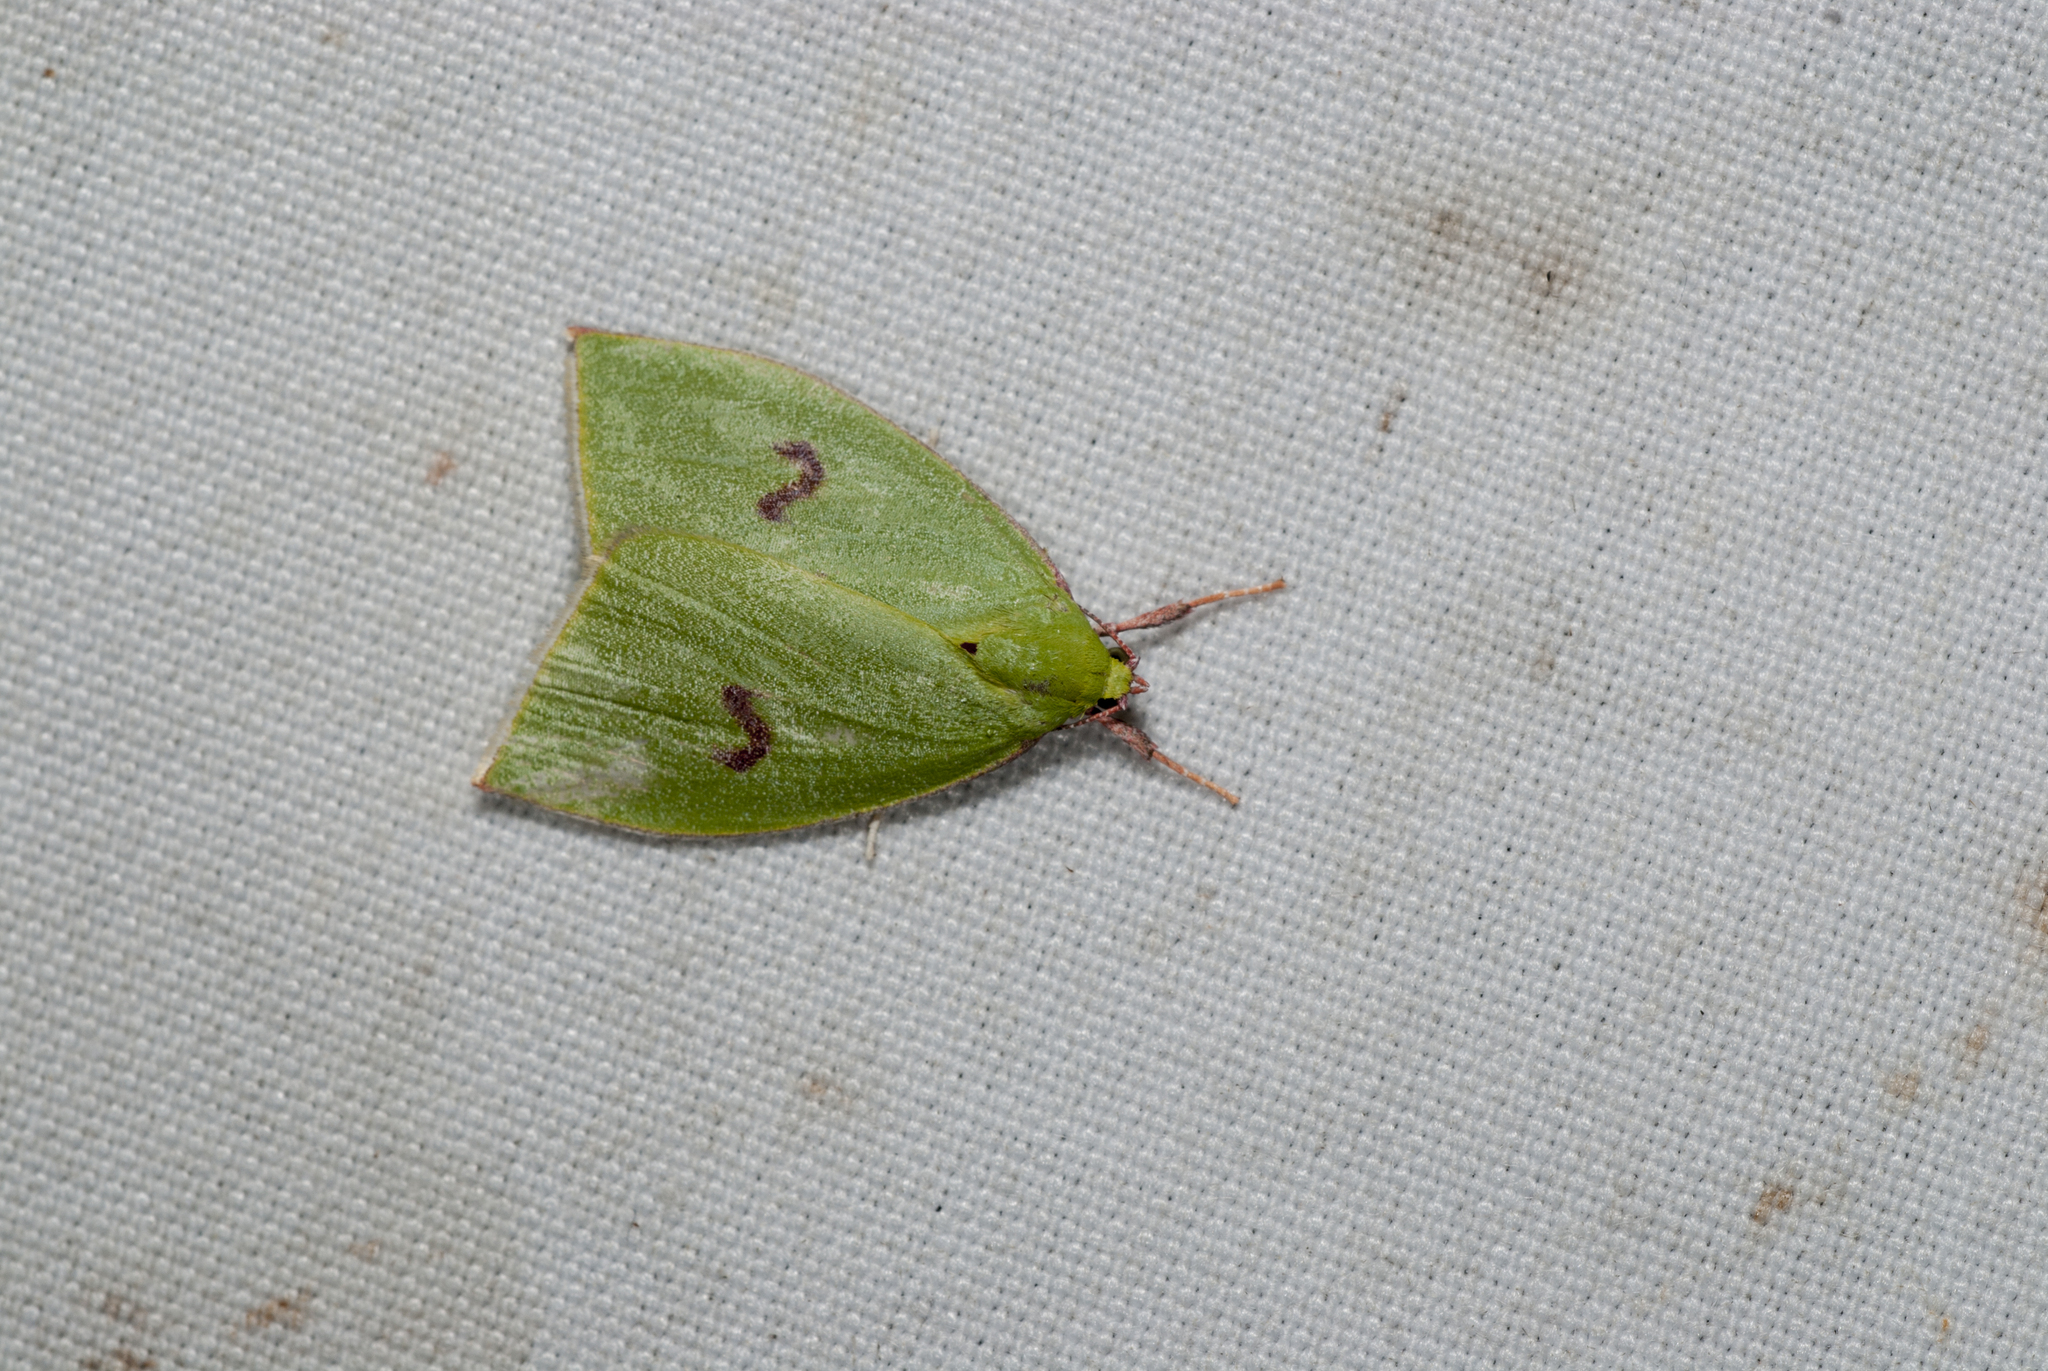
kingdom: Animalia
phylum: Arthropoda
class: Insecta
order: Lepidoptera
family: Nolidae
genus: Tyana
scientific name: Tyana falcata
